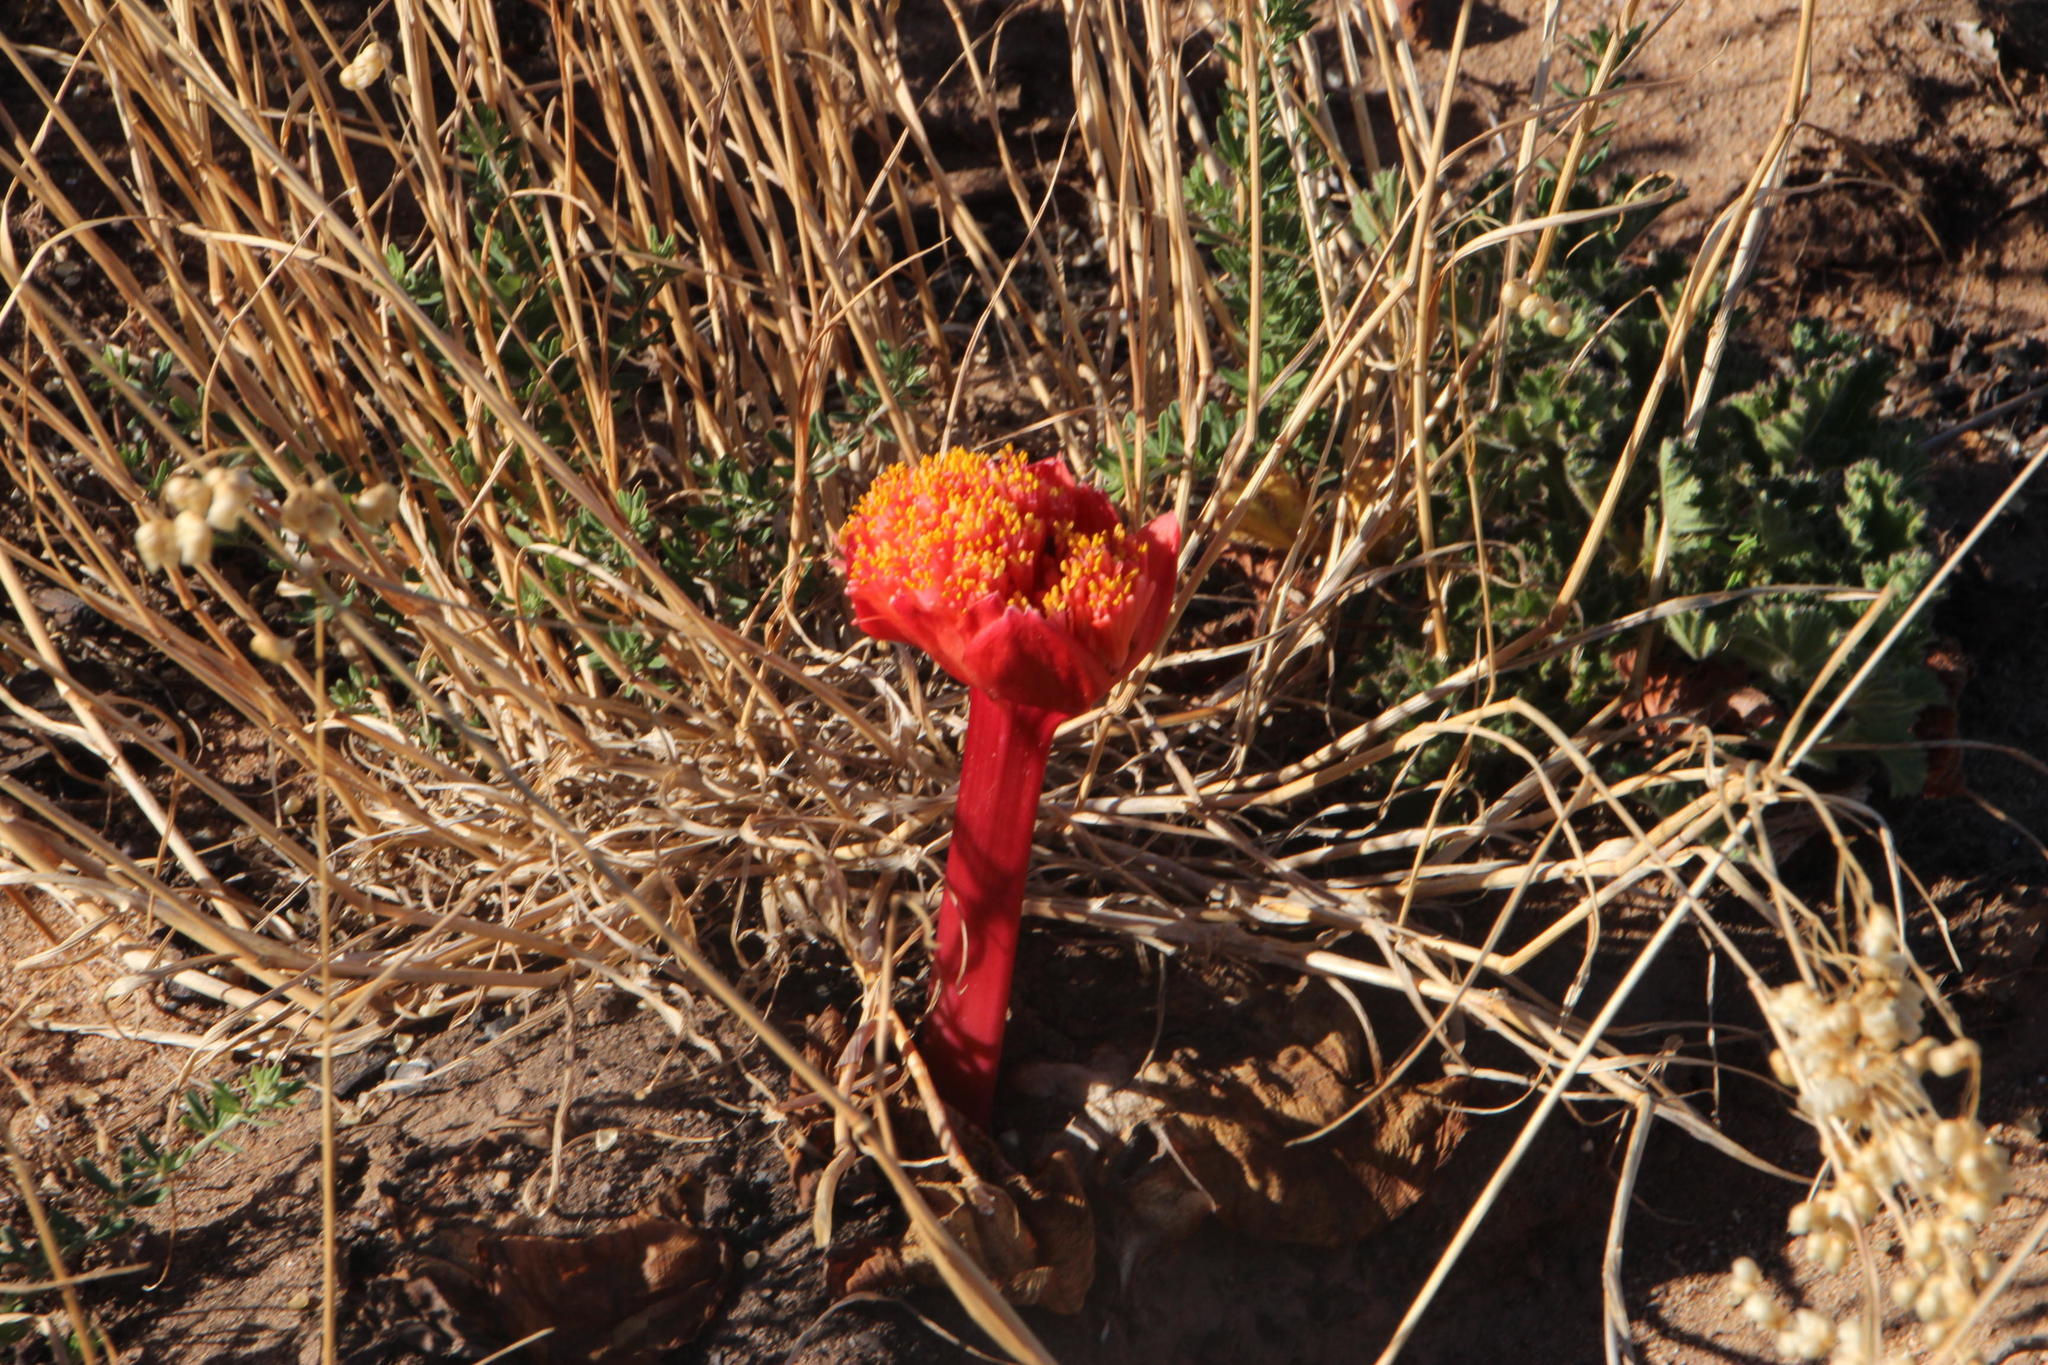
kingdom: Plantae
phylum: Tracheophyta
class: Liliopsida
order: Asparagales
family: Amaryllidaceae
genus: Haemanthus
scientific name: Haemanthus sanguineus
